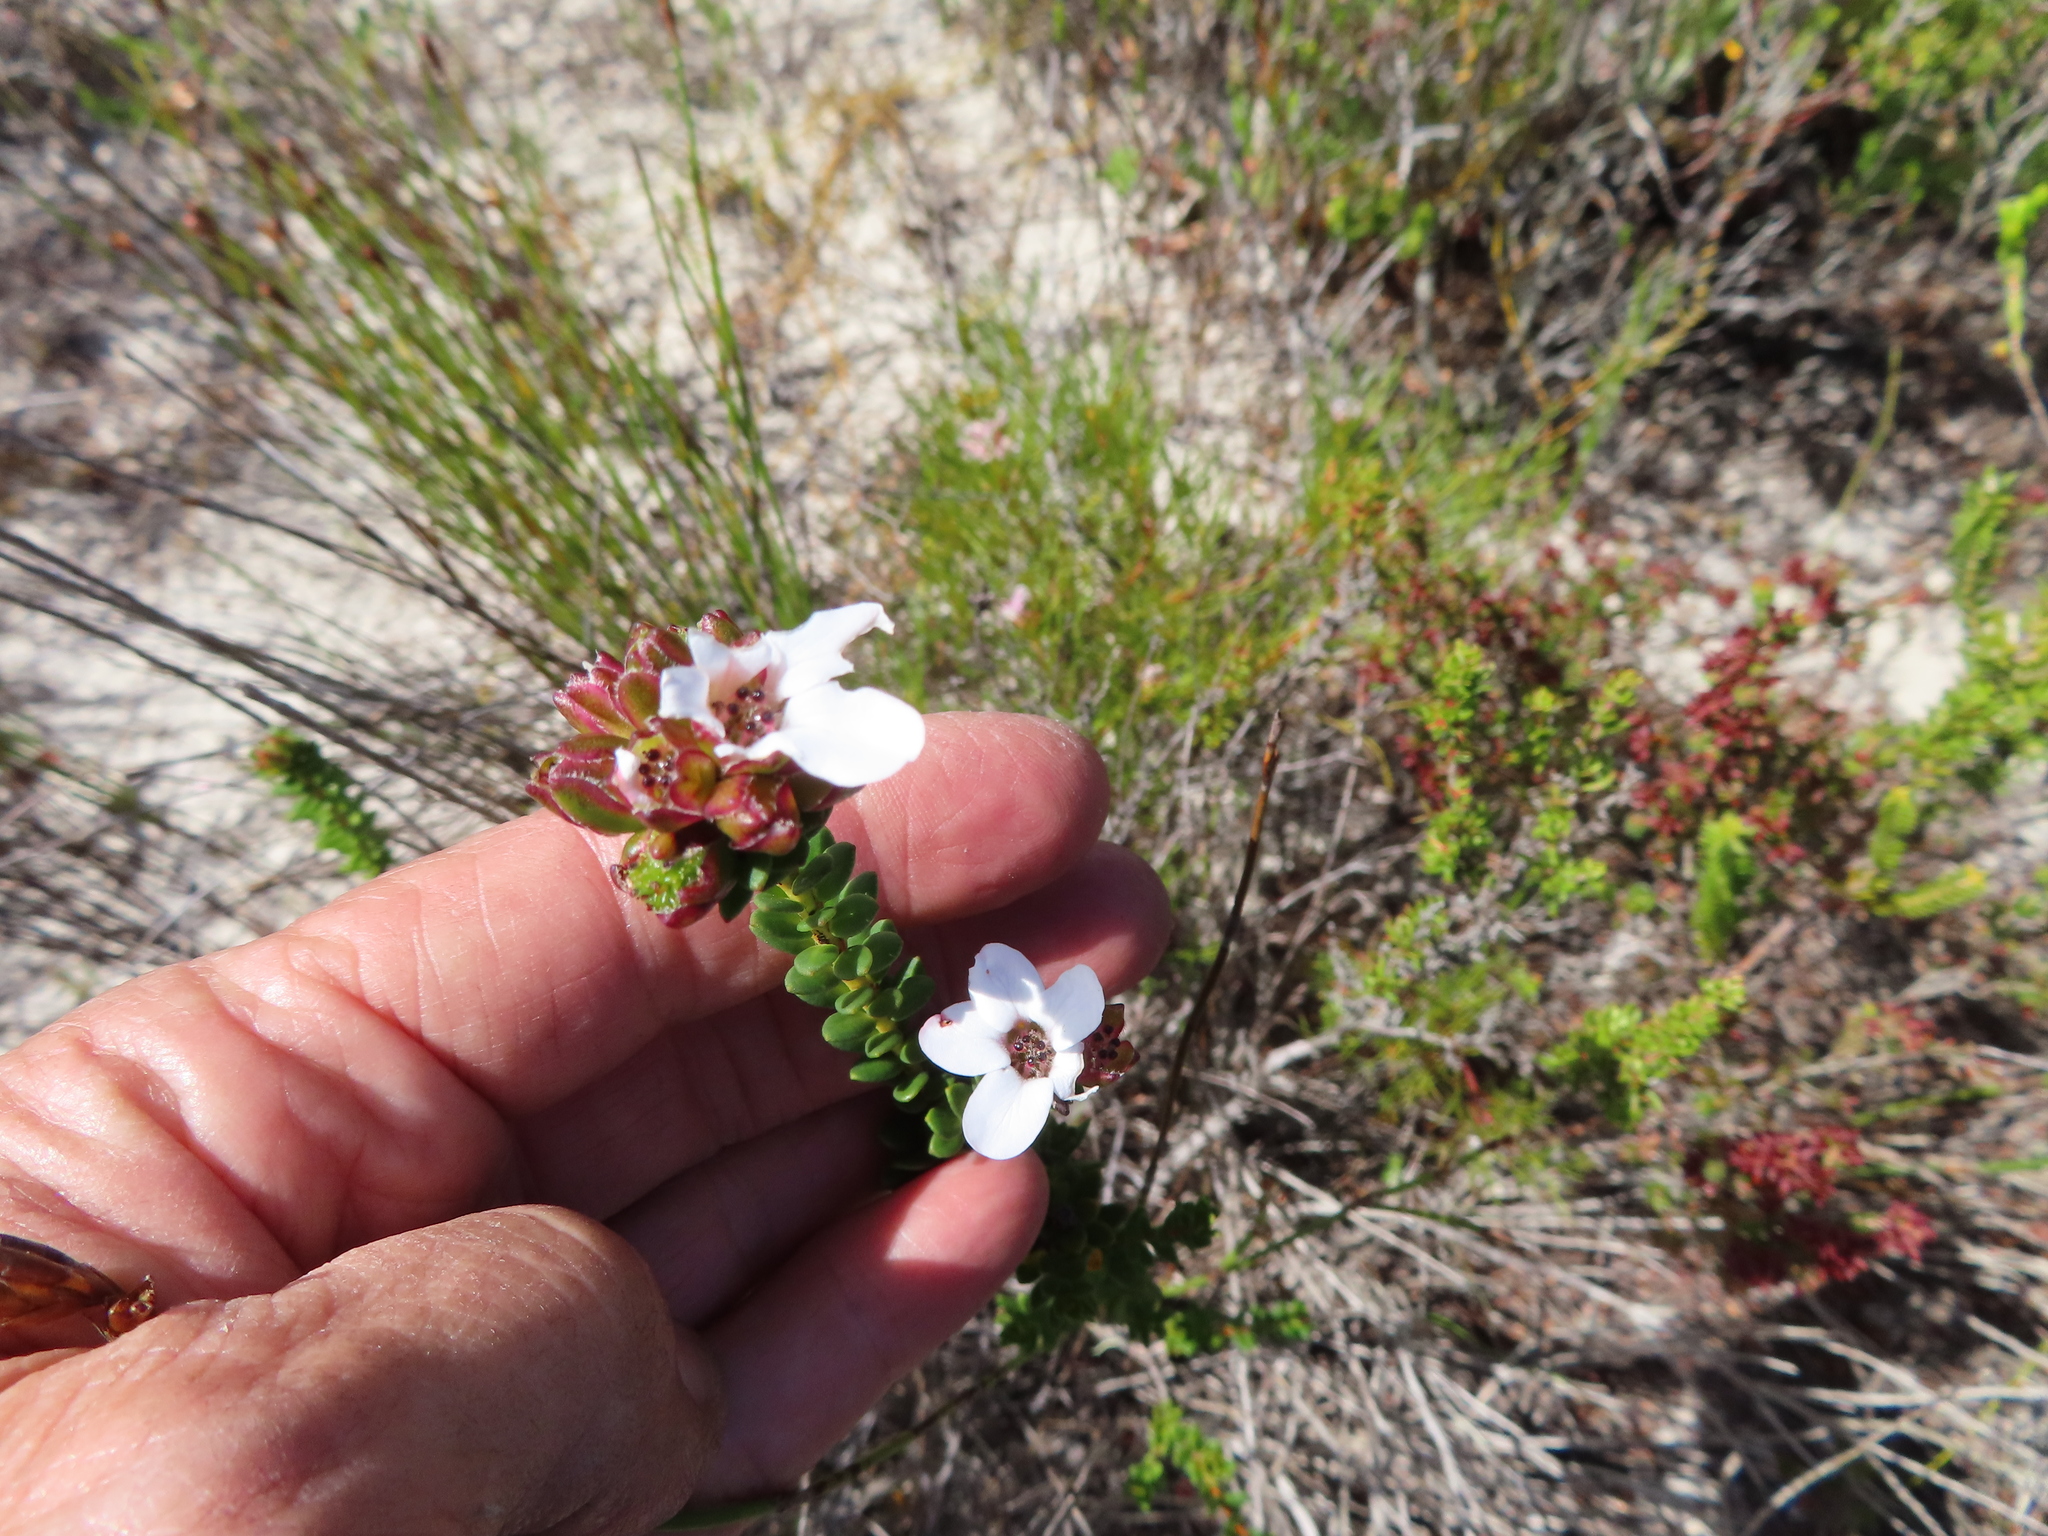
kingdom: Plantae
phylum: Tracheophyta
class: Magnoliopsida
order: Sapindales
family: Rutaceae
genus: Adenandra
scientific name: Adenandra brachyphylla
